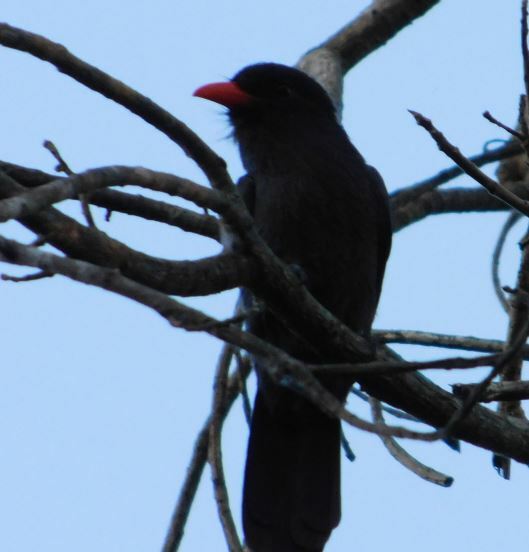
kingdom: Animalia
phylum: Chordata
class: Aves
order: Piciformes
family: Bucconidae
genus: Monasa
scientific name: Monasa nigrifrons
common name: Black-fronted nunbird
